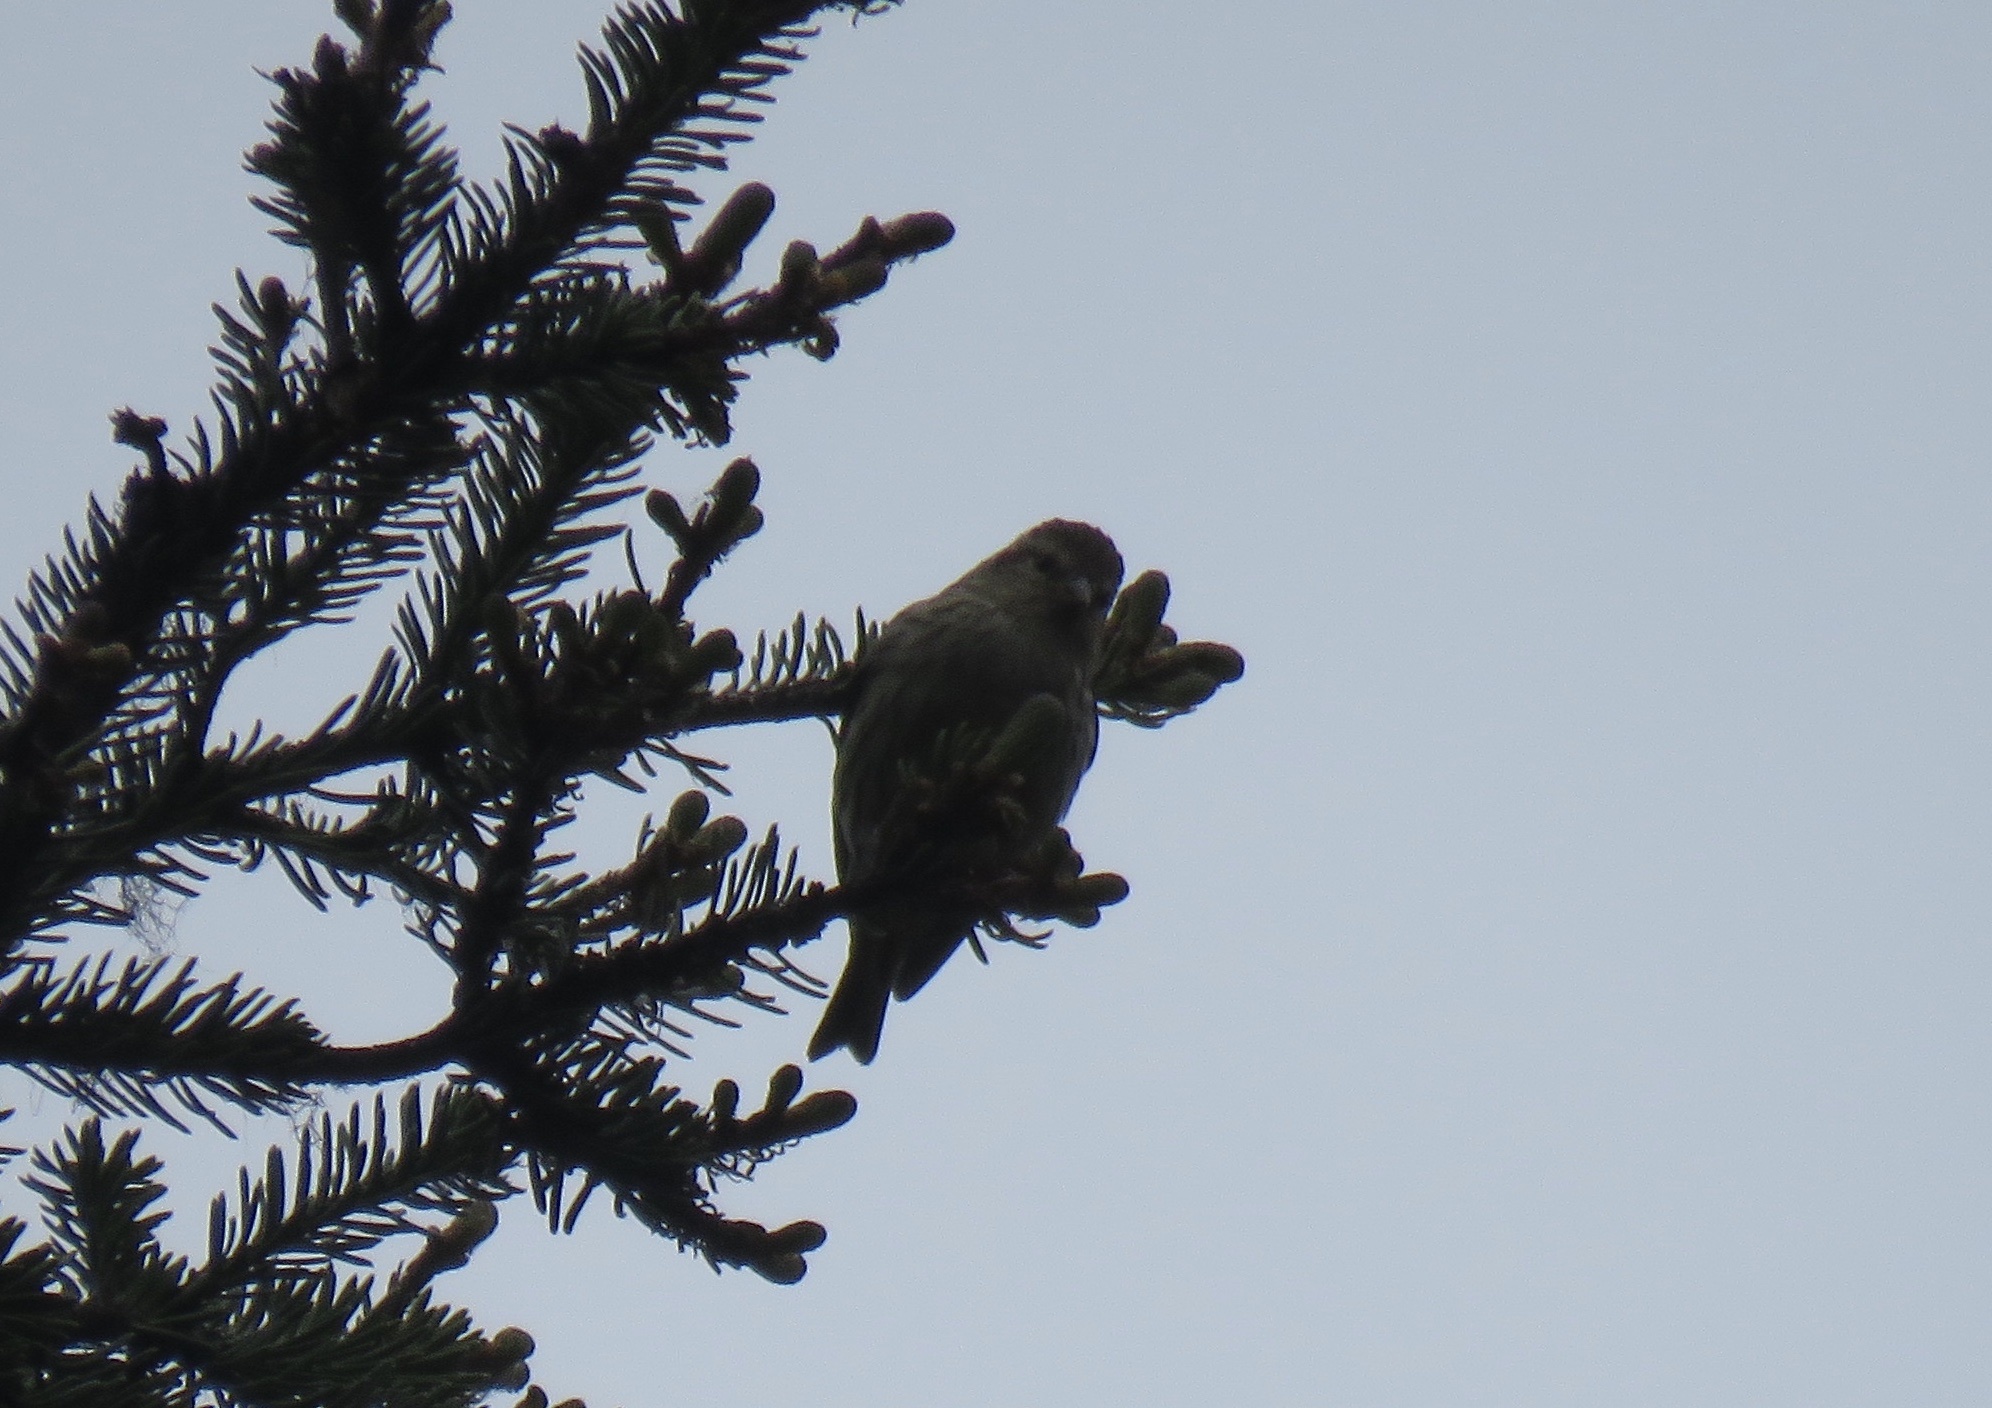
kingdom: Animalia
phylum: Chordata
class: Aves
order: Passeriformes
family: Fringillidae
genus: Spinus
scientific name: Spinus pinus
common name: Pine siskin
